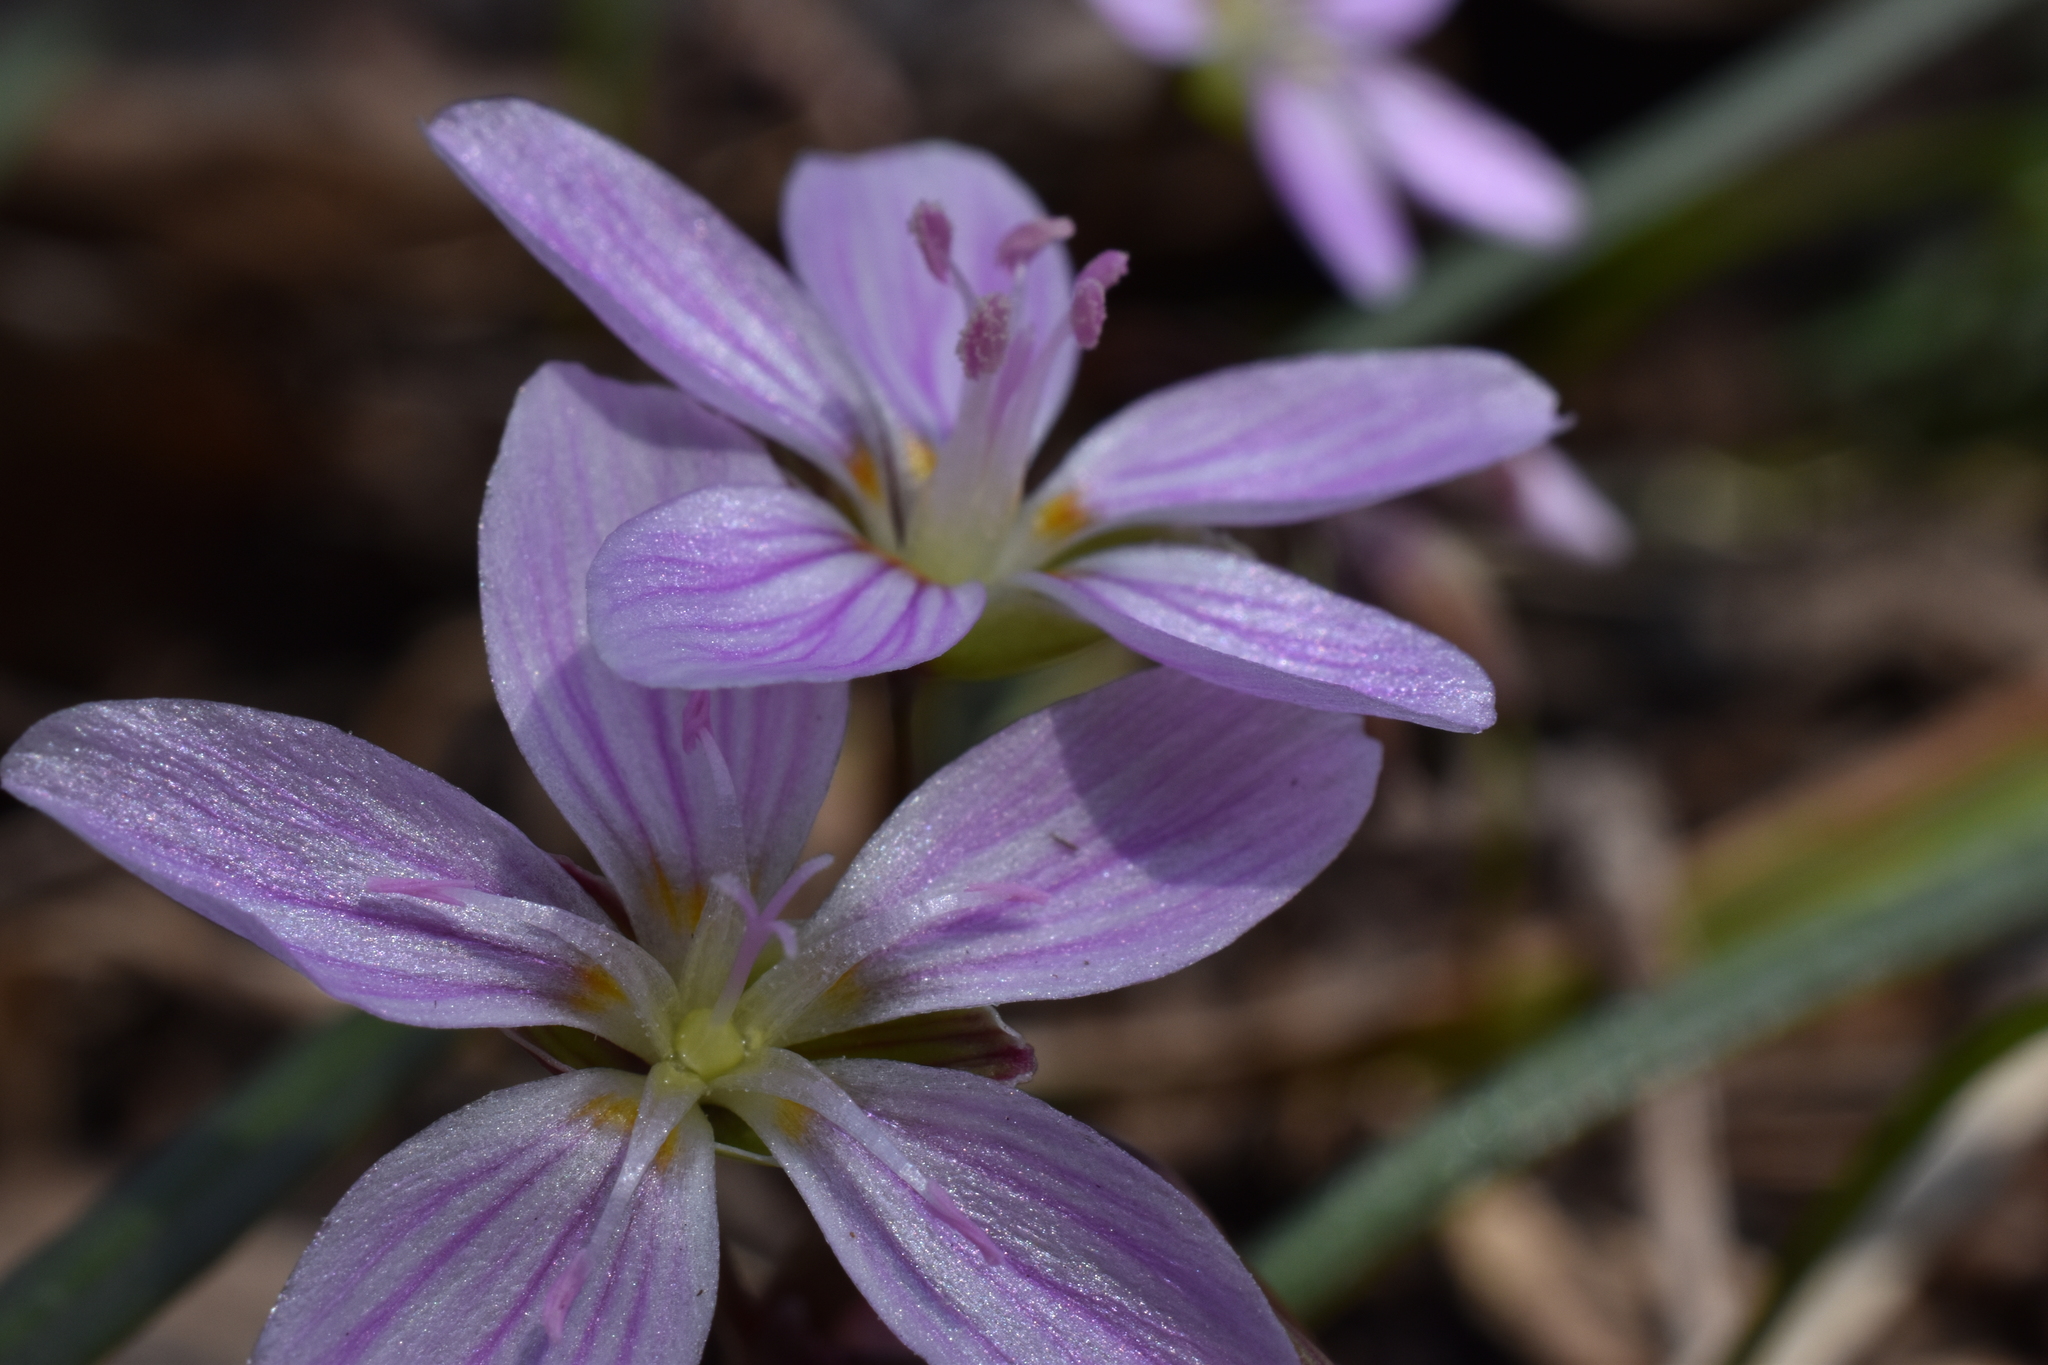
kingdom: Plantae
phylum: Tracheophyta
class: Magnoliopsida
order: Caryophyllales
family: Montiaceae
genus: Claytonia
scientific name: Claytonia virginica
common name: Virginia springbeauty
